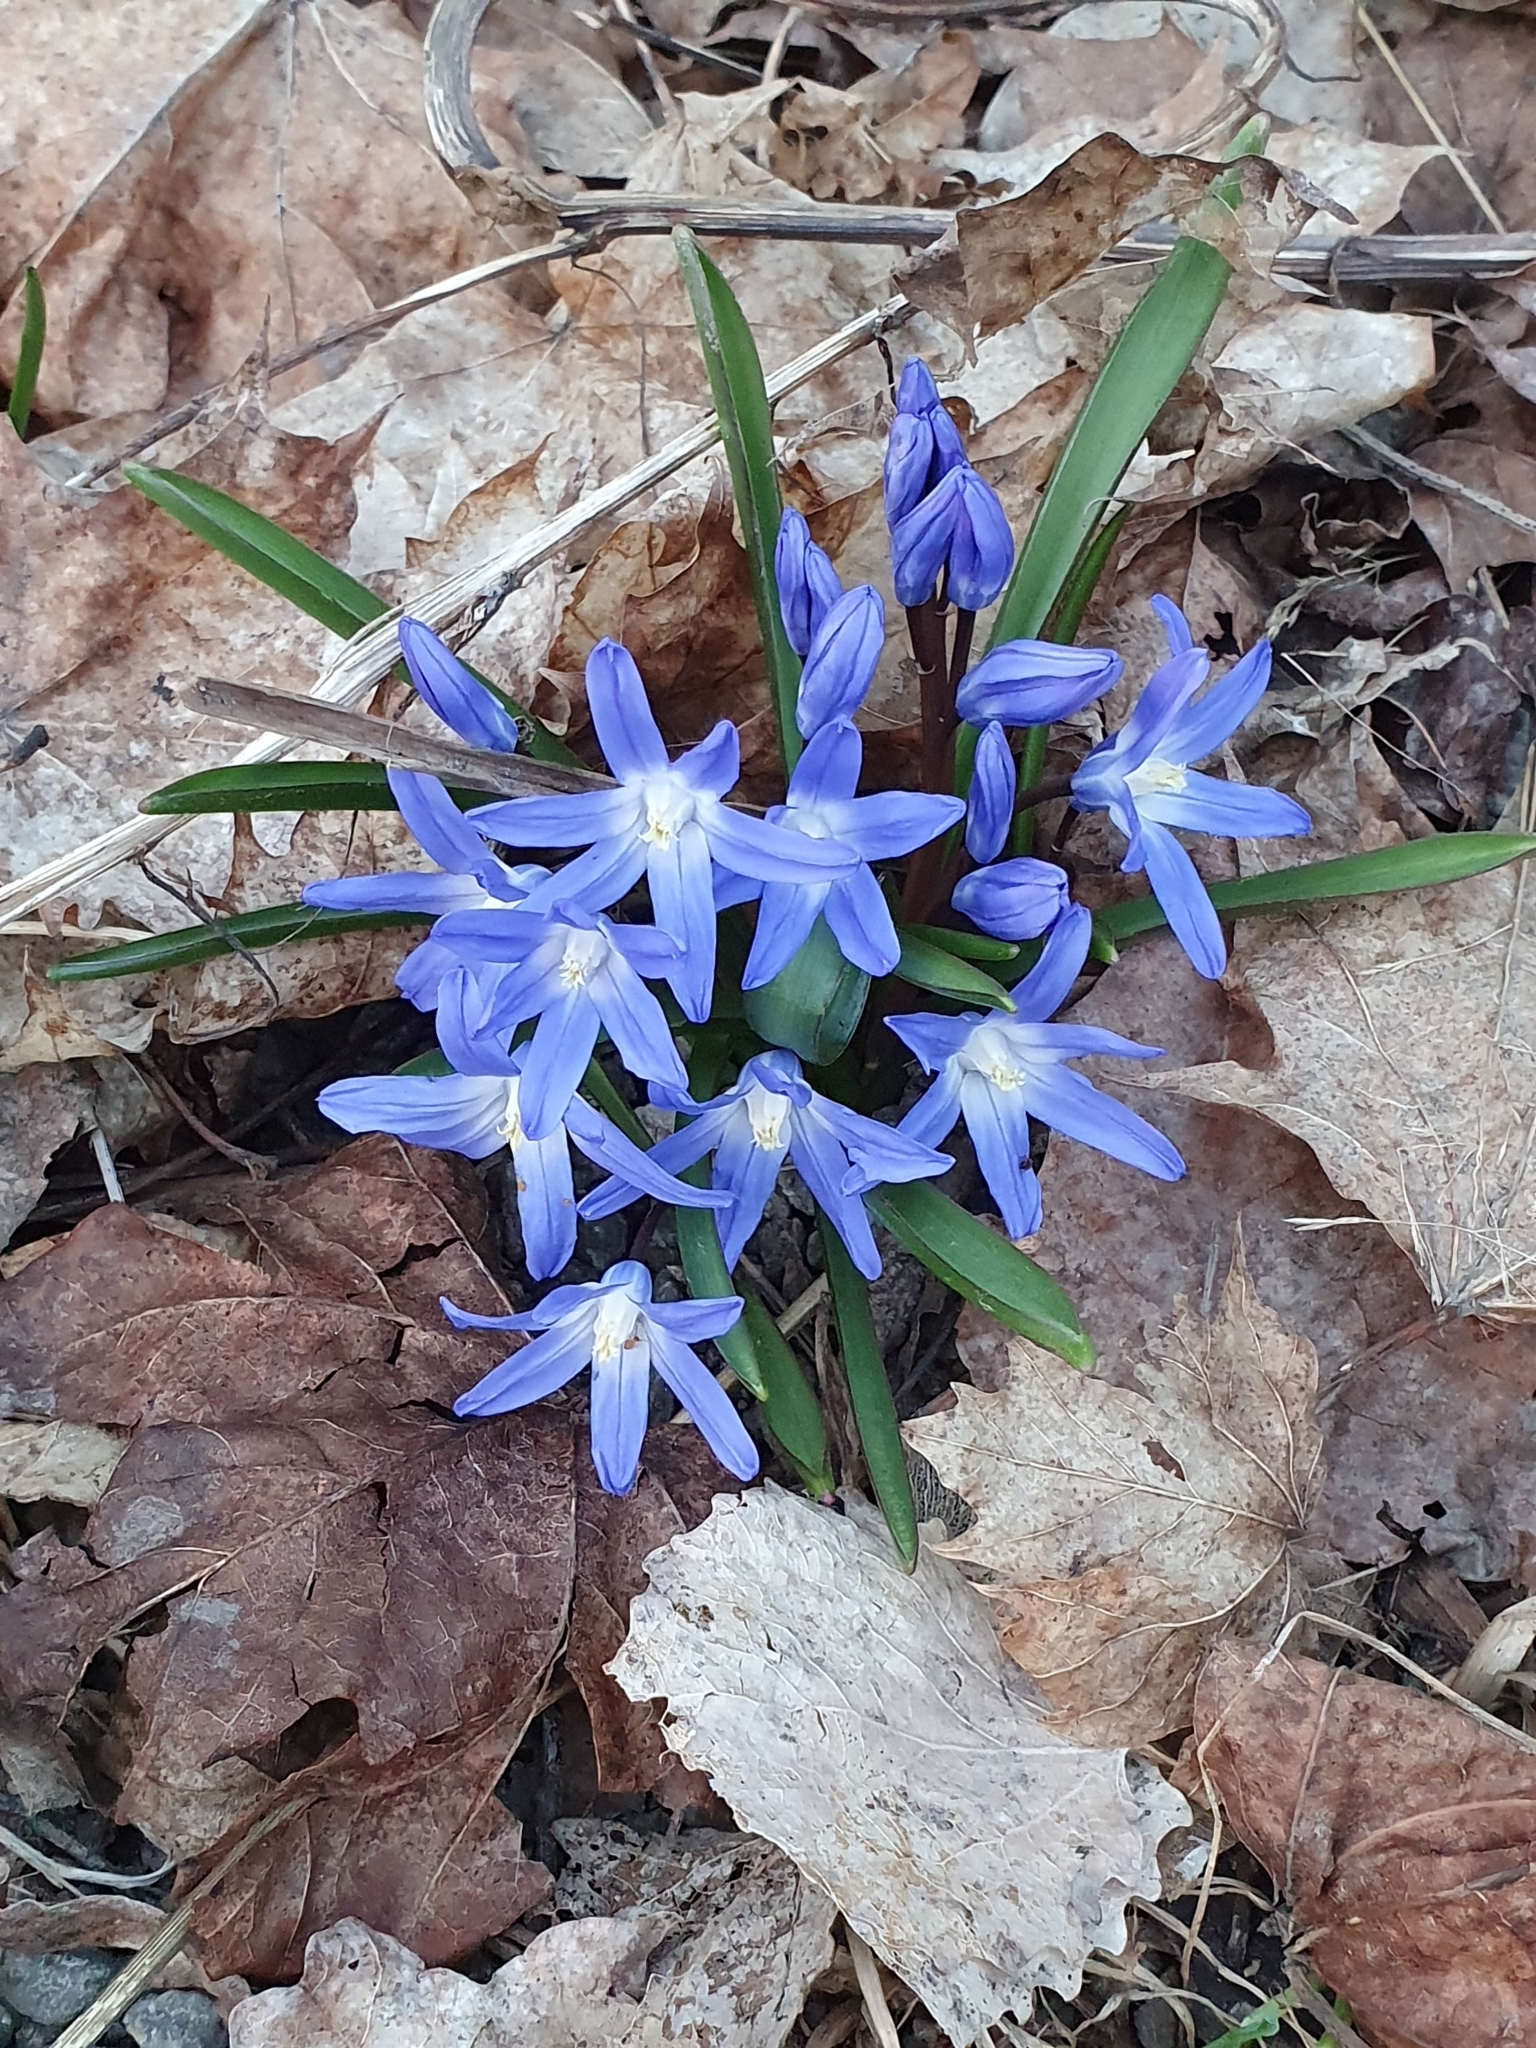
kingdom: Plantae
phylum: Tracheophyta
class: Liliopsida
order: Asparagales
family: Asparagaceae
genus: Scilla
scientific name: Scilla forbesii
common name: Glory-of-the-snow
